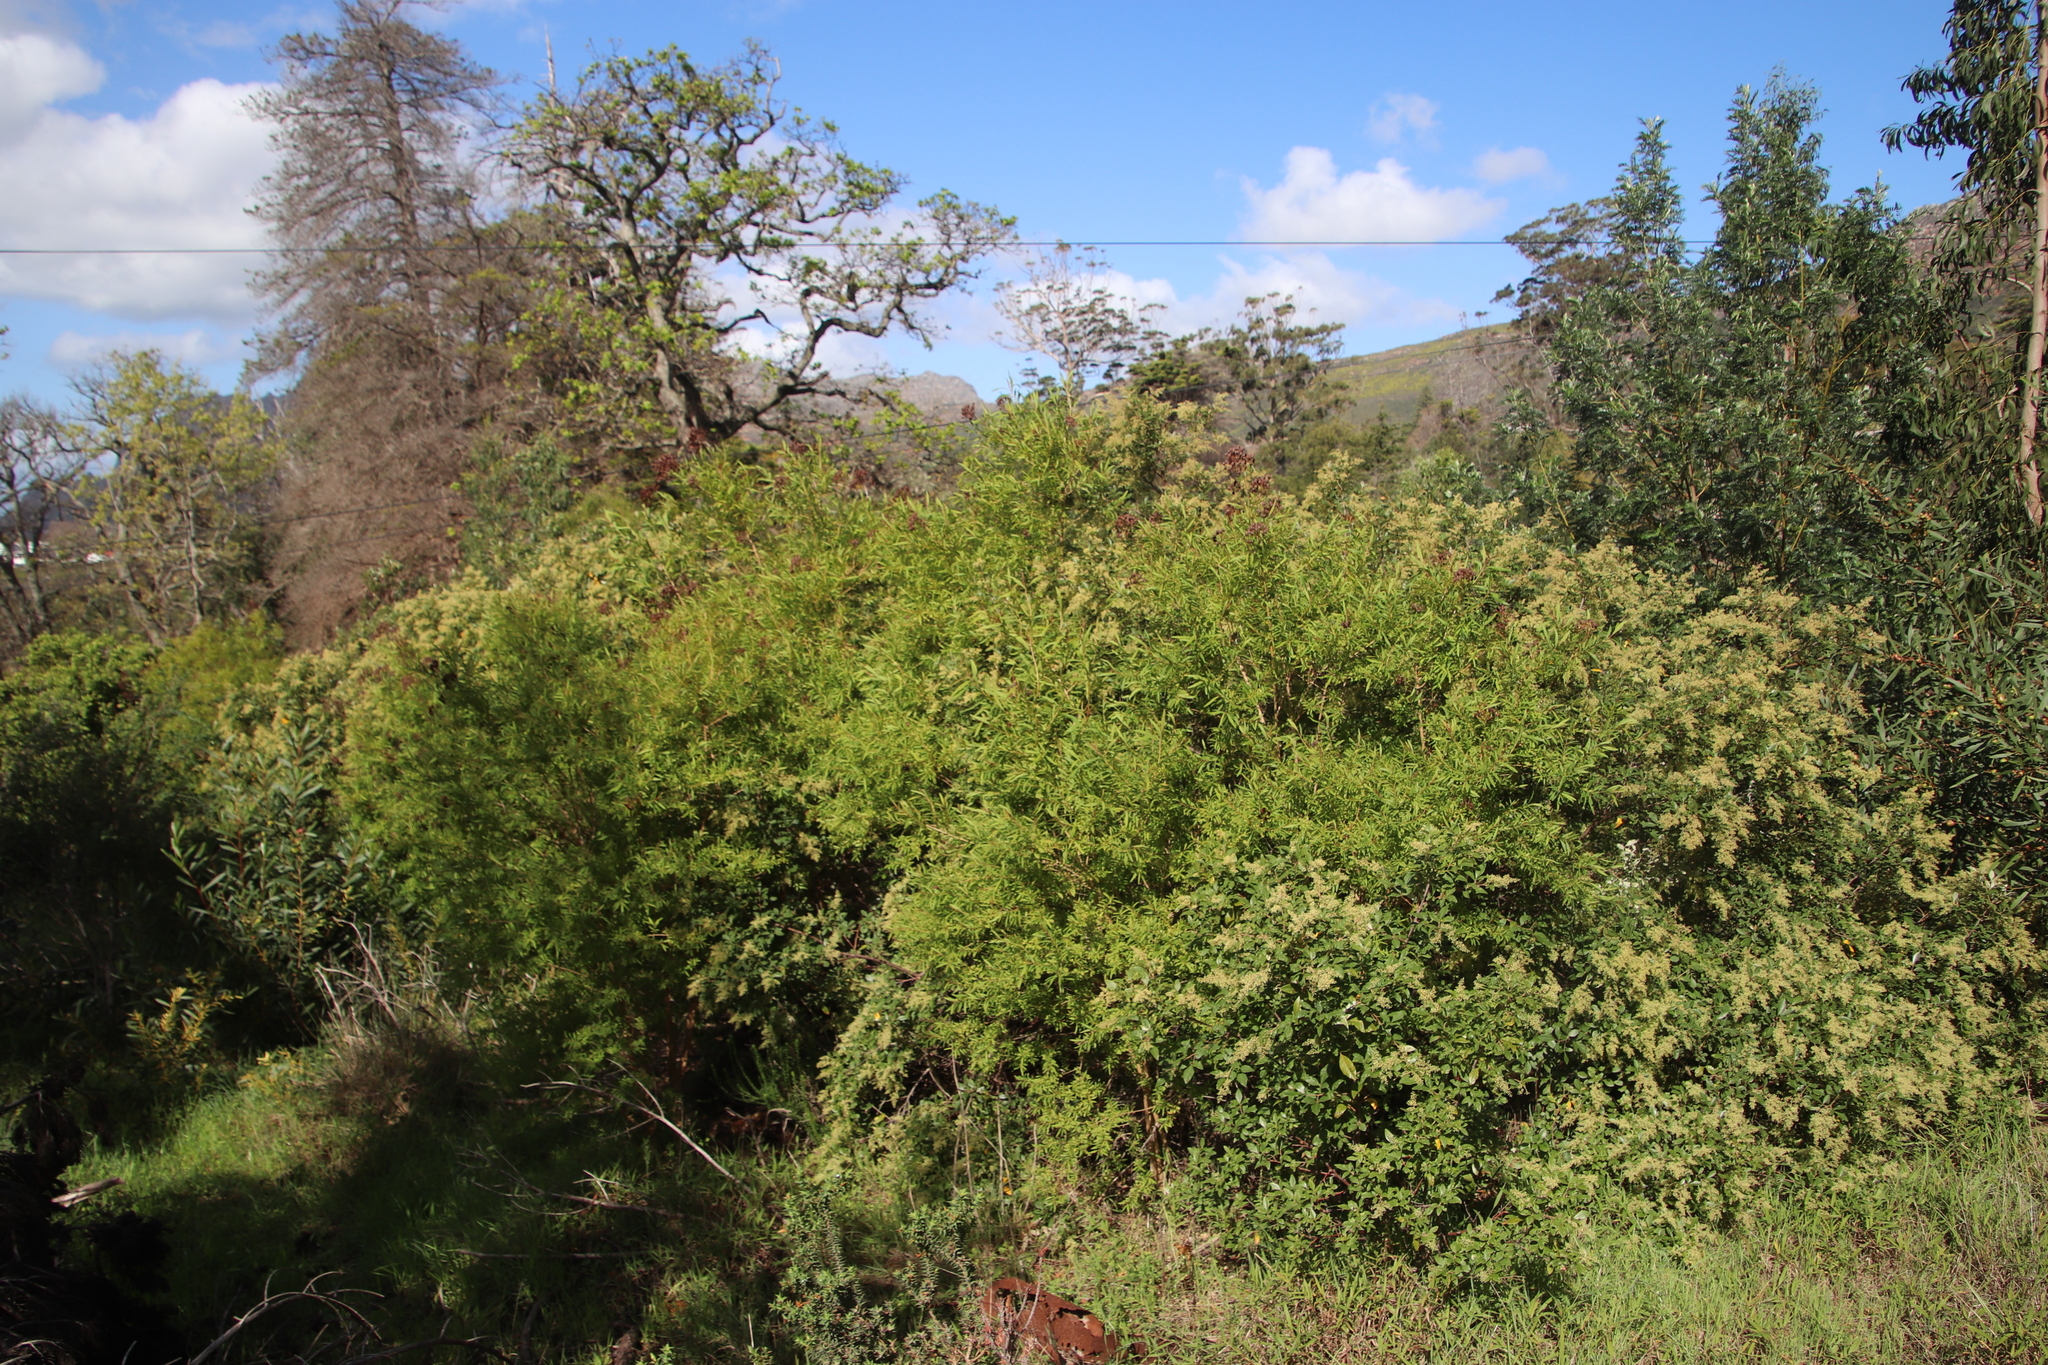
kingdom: Plantae
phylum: Tracheophyta
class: Magnoliopsida
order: Malpighiales
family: Hypericaceae
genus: Hypericum
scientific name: Hypericum canariense
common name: Canary island st. johnswort
